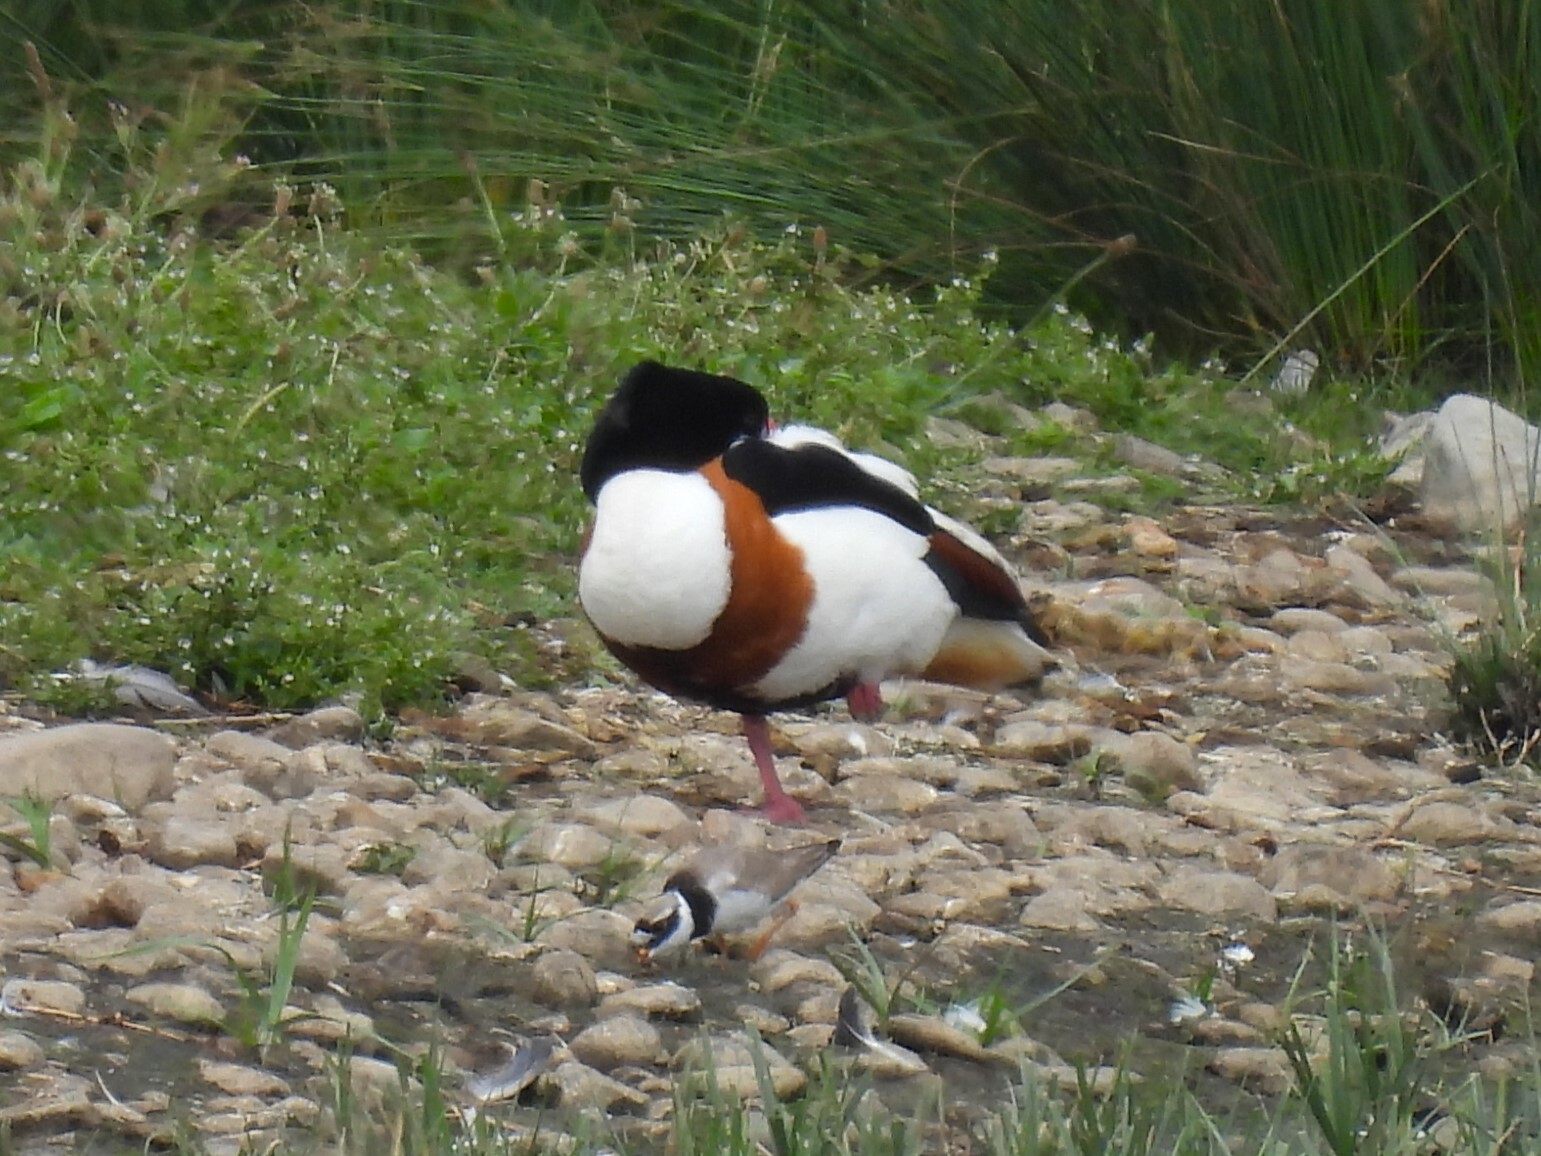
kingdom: Animalia
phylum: Chordata
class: Aves
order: Anseriformes
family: Anatidae
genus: Tadorna
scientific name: Tadorna tadorna
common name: Common shelduck
